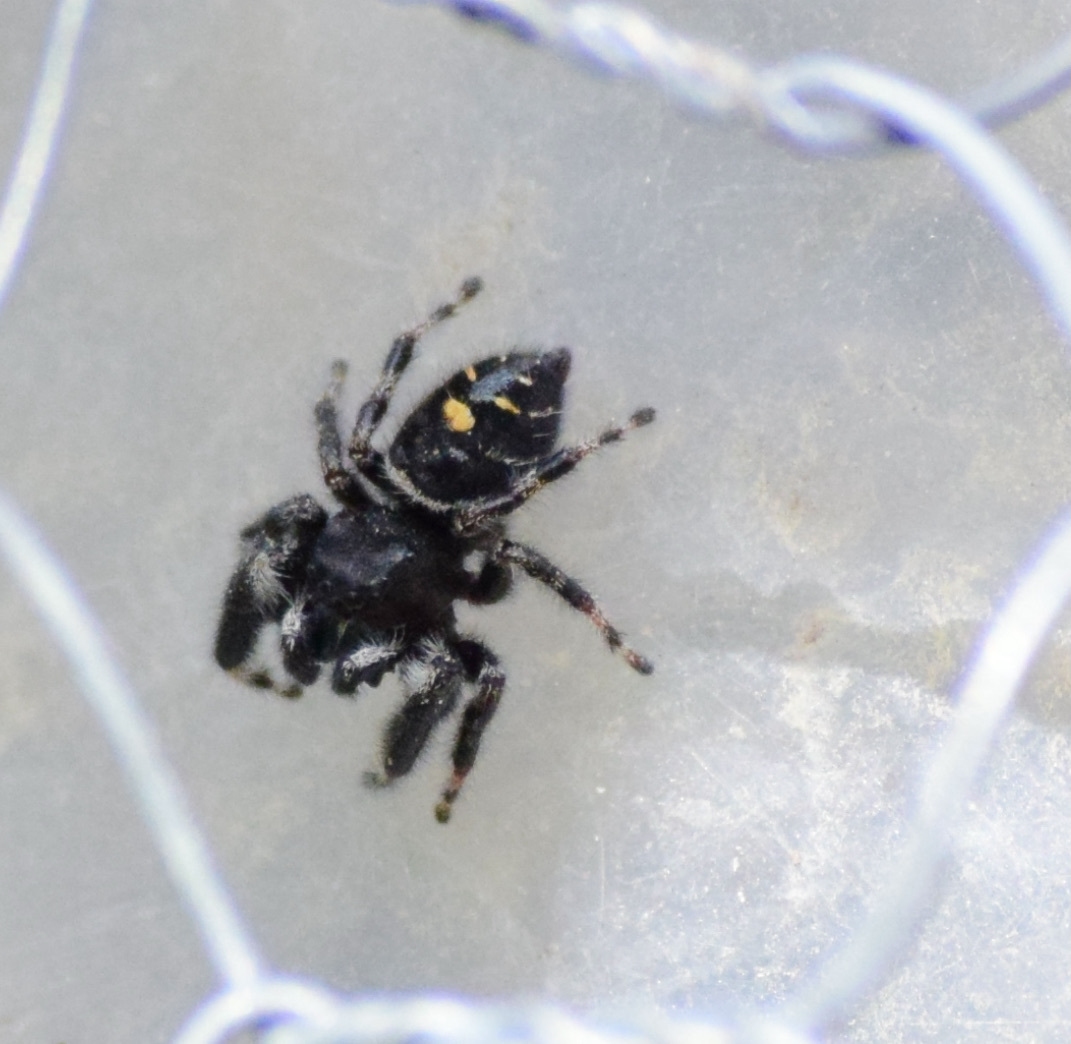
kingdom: Animalia
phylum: Arthropoda
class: Arachnida
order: Araneae
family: Salticidae
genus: Phidippus
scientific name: Phidippus audax
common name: Bold jumper
